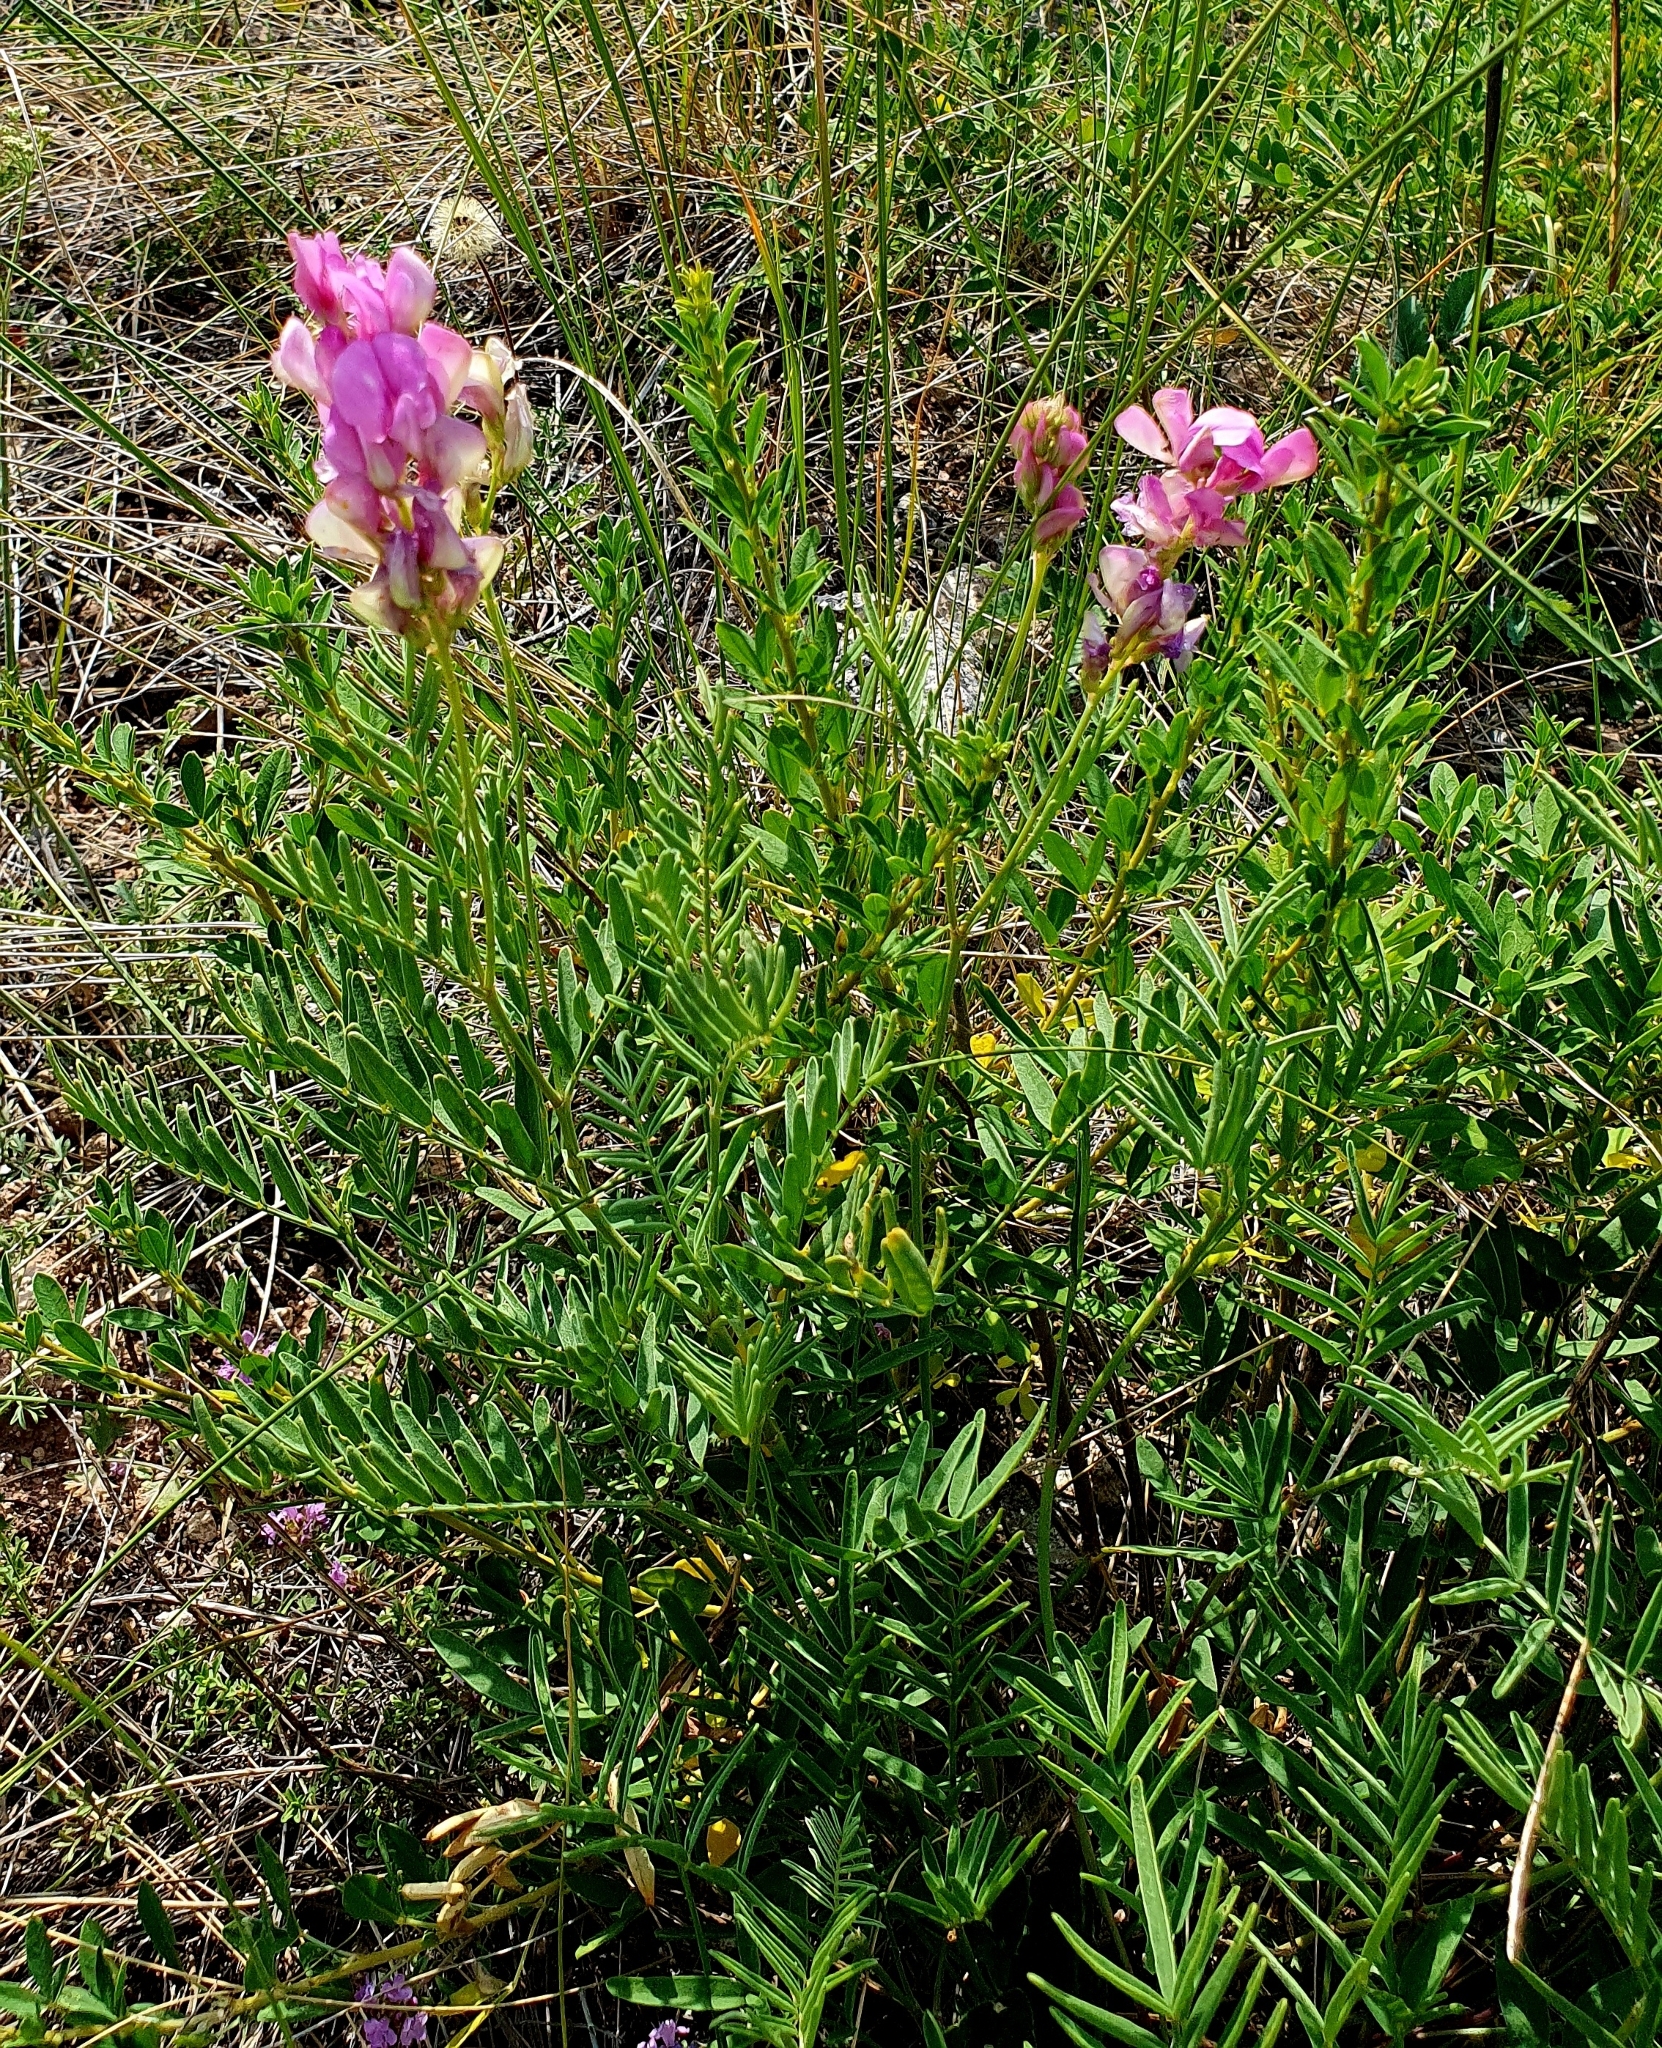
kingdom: Plantae
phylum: Tracheophyta
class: Magnoliopsida
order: Fabales
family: Fabaceae
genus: Hedysarum
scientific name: Hedysarum razoumovianum
